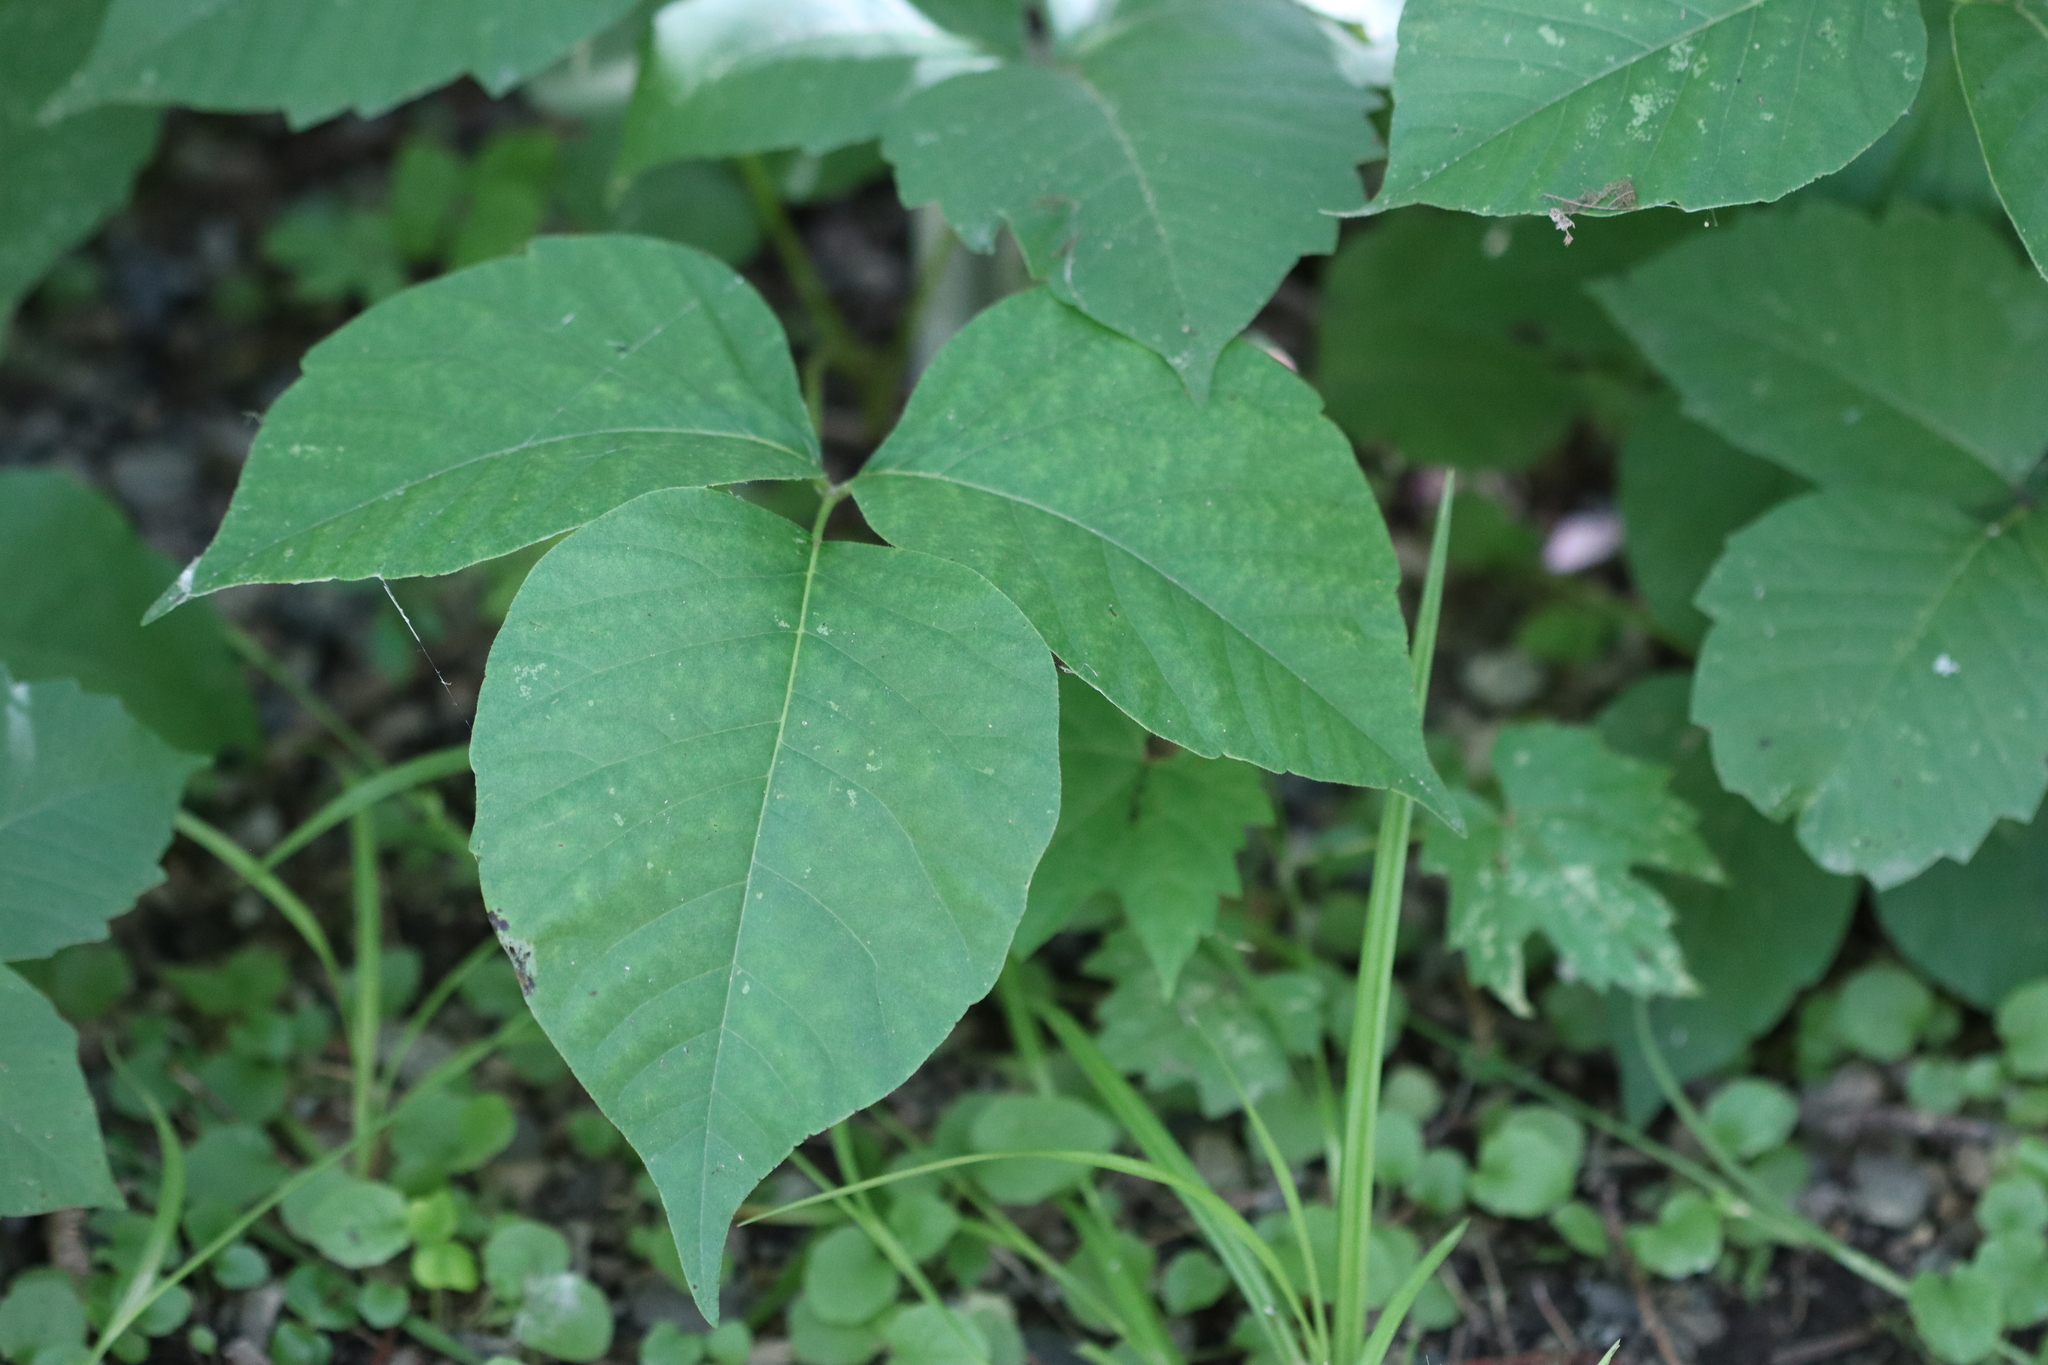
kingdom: Plantae
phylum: Tracheophyta
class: Magnoliopsida
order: Sapindales
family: Anacardiaceae
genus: Toxicodendron
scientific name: Toxicodendron radicans
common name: Poison ivy
